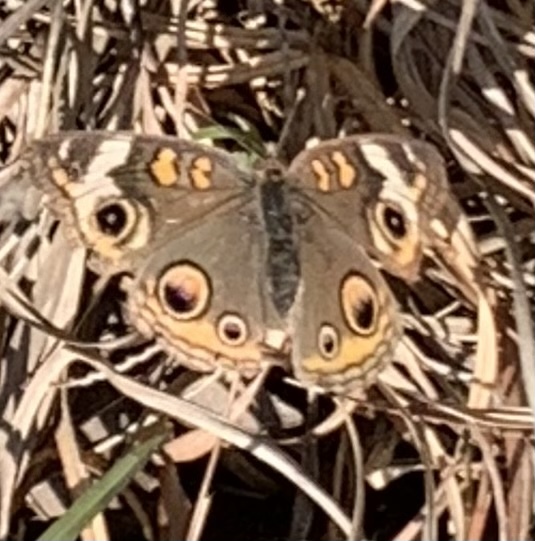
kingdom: Animalia
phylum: Arthropoda
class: Insecta
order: Lepidoptera
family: Nymphalidae
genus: Junonia
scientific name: Junonia coenia
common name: Common buckeye
